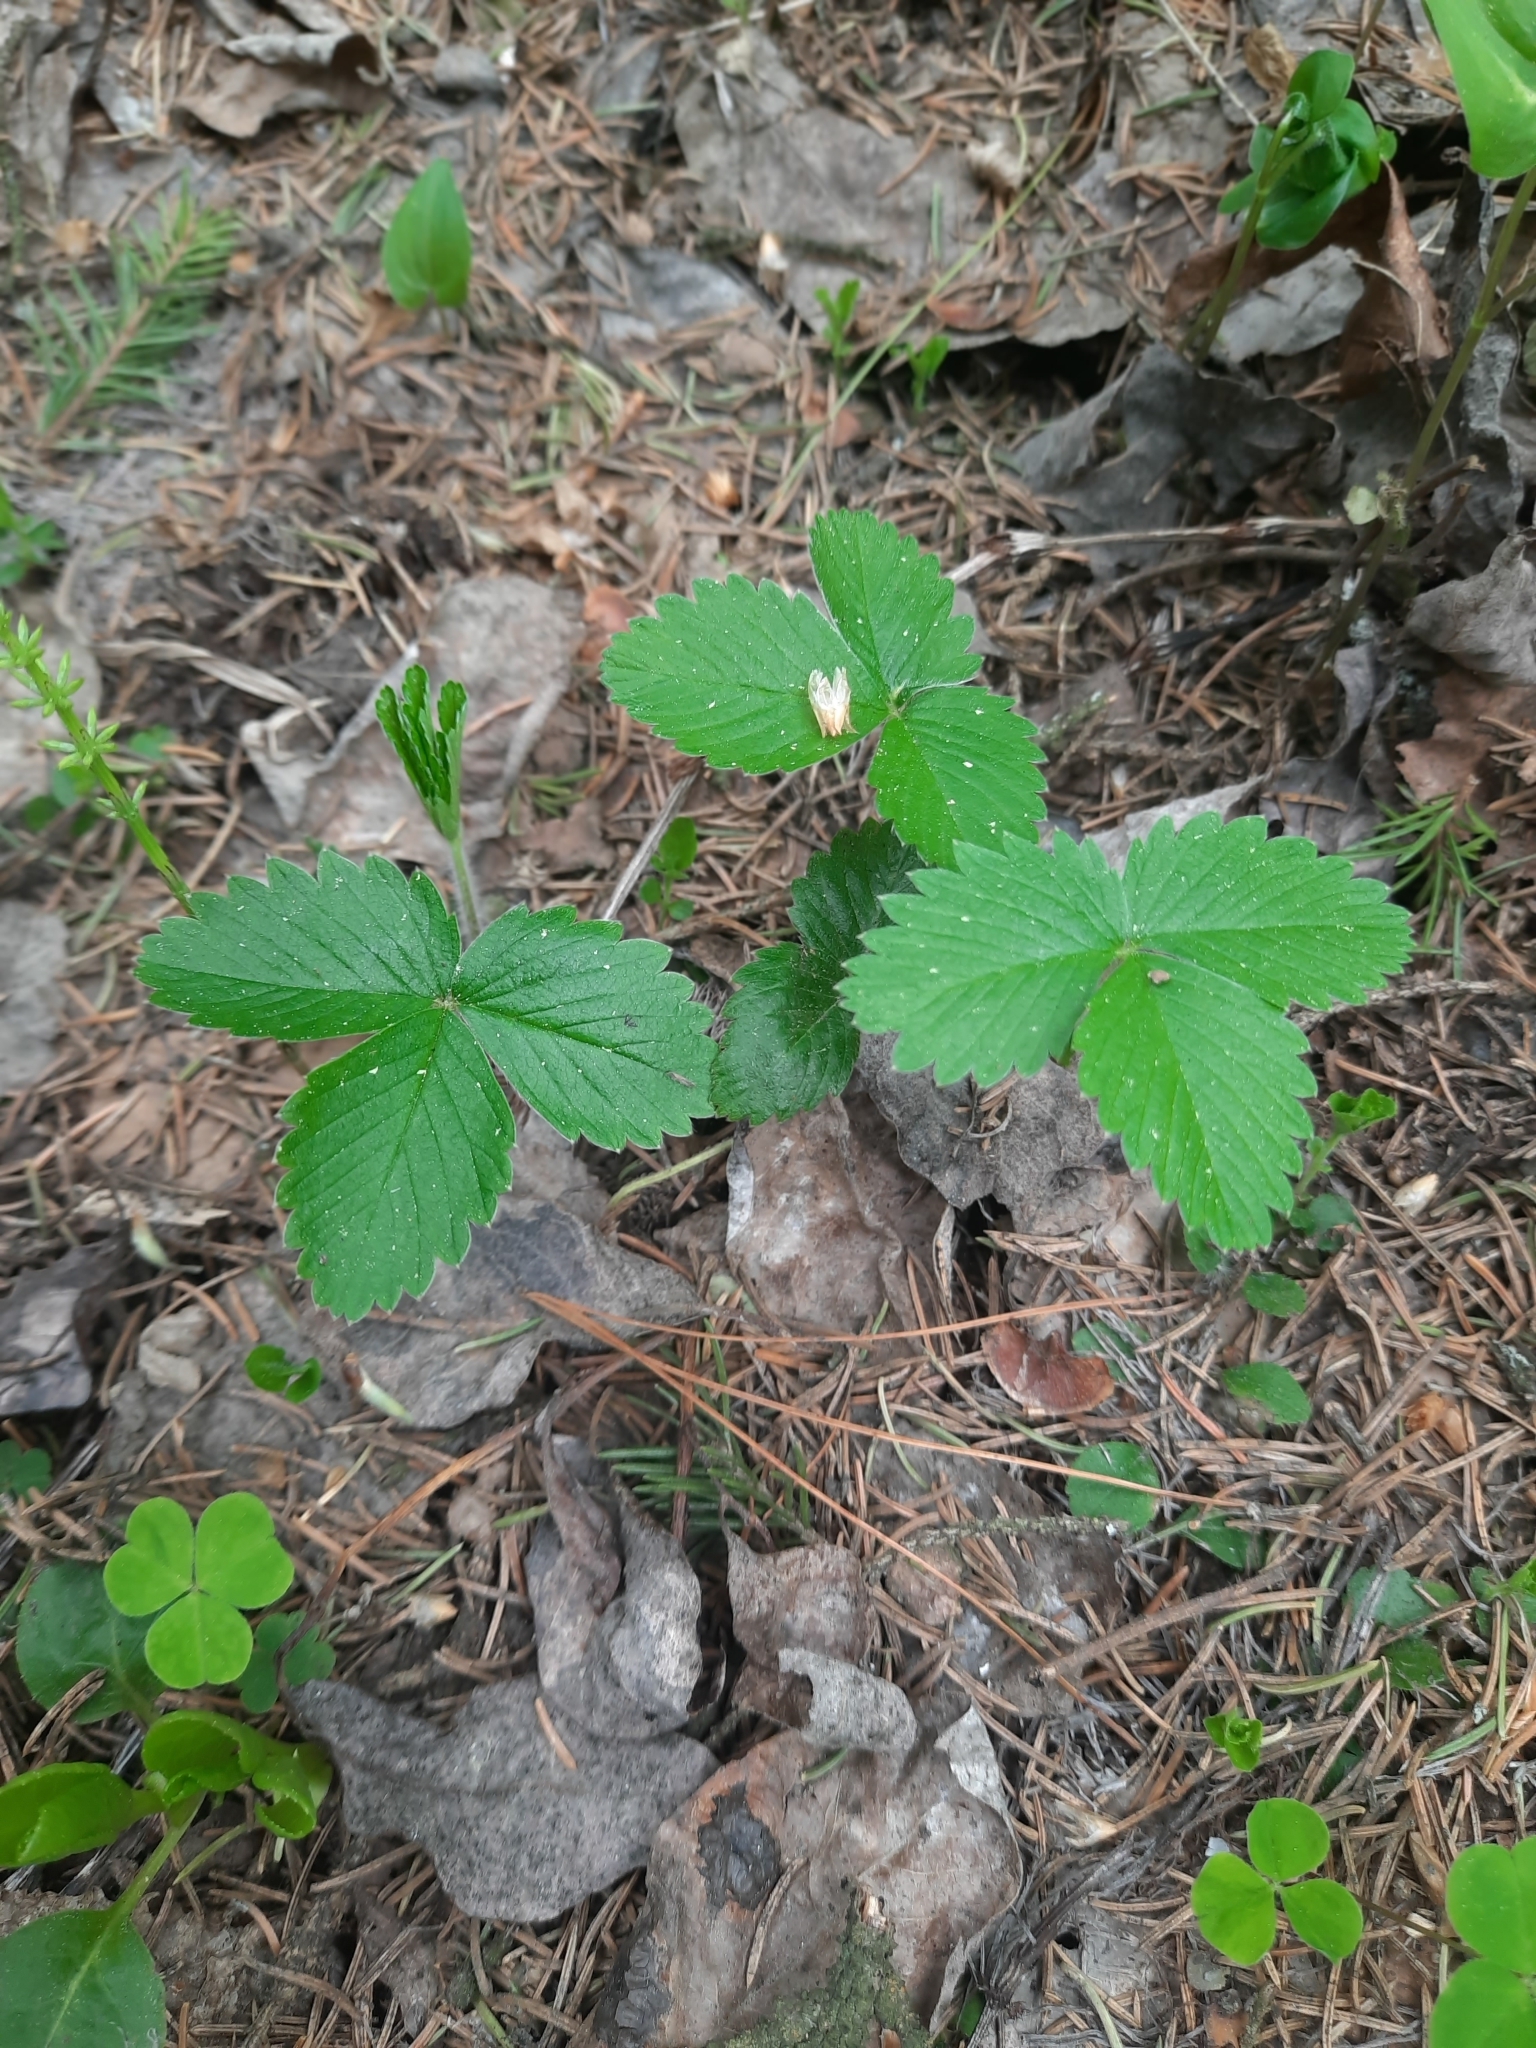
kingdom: Plantae
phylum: Tracheophyta
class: Magnoliopsida
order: Rosales
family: Rosaceae
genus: Fragaria
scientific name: Fragaria vesca
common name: Wild strawberry
